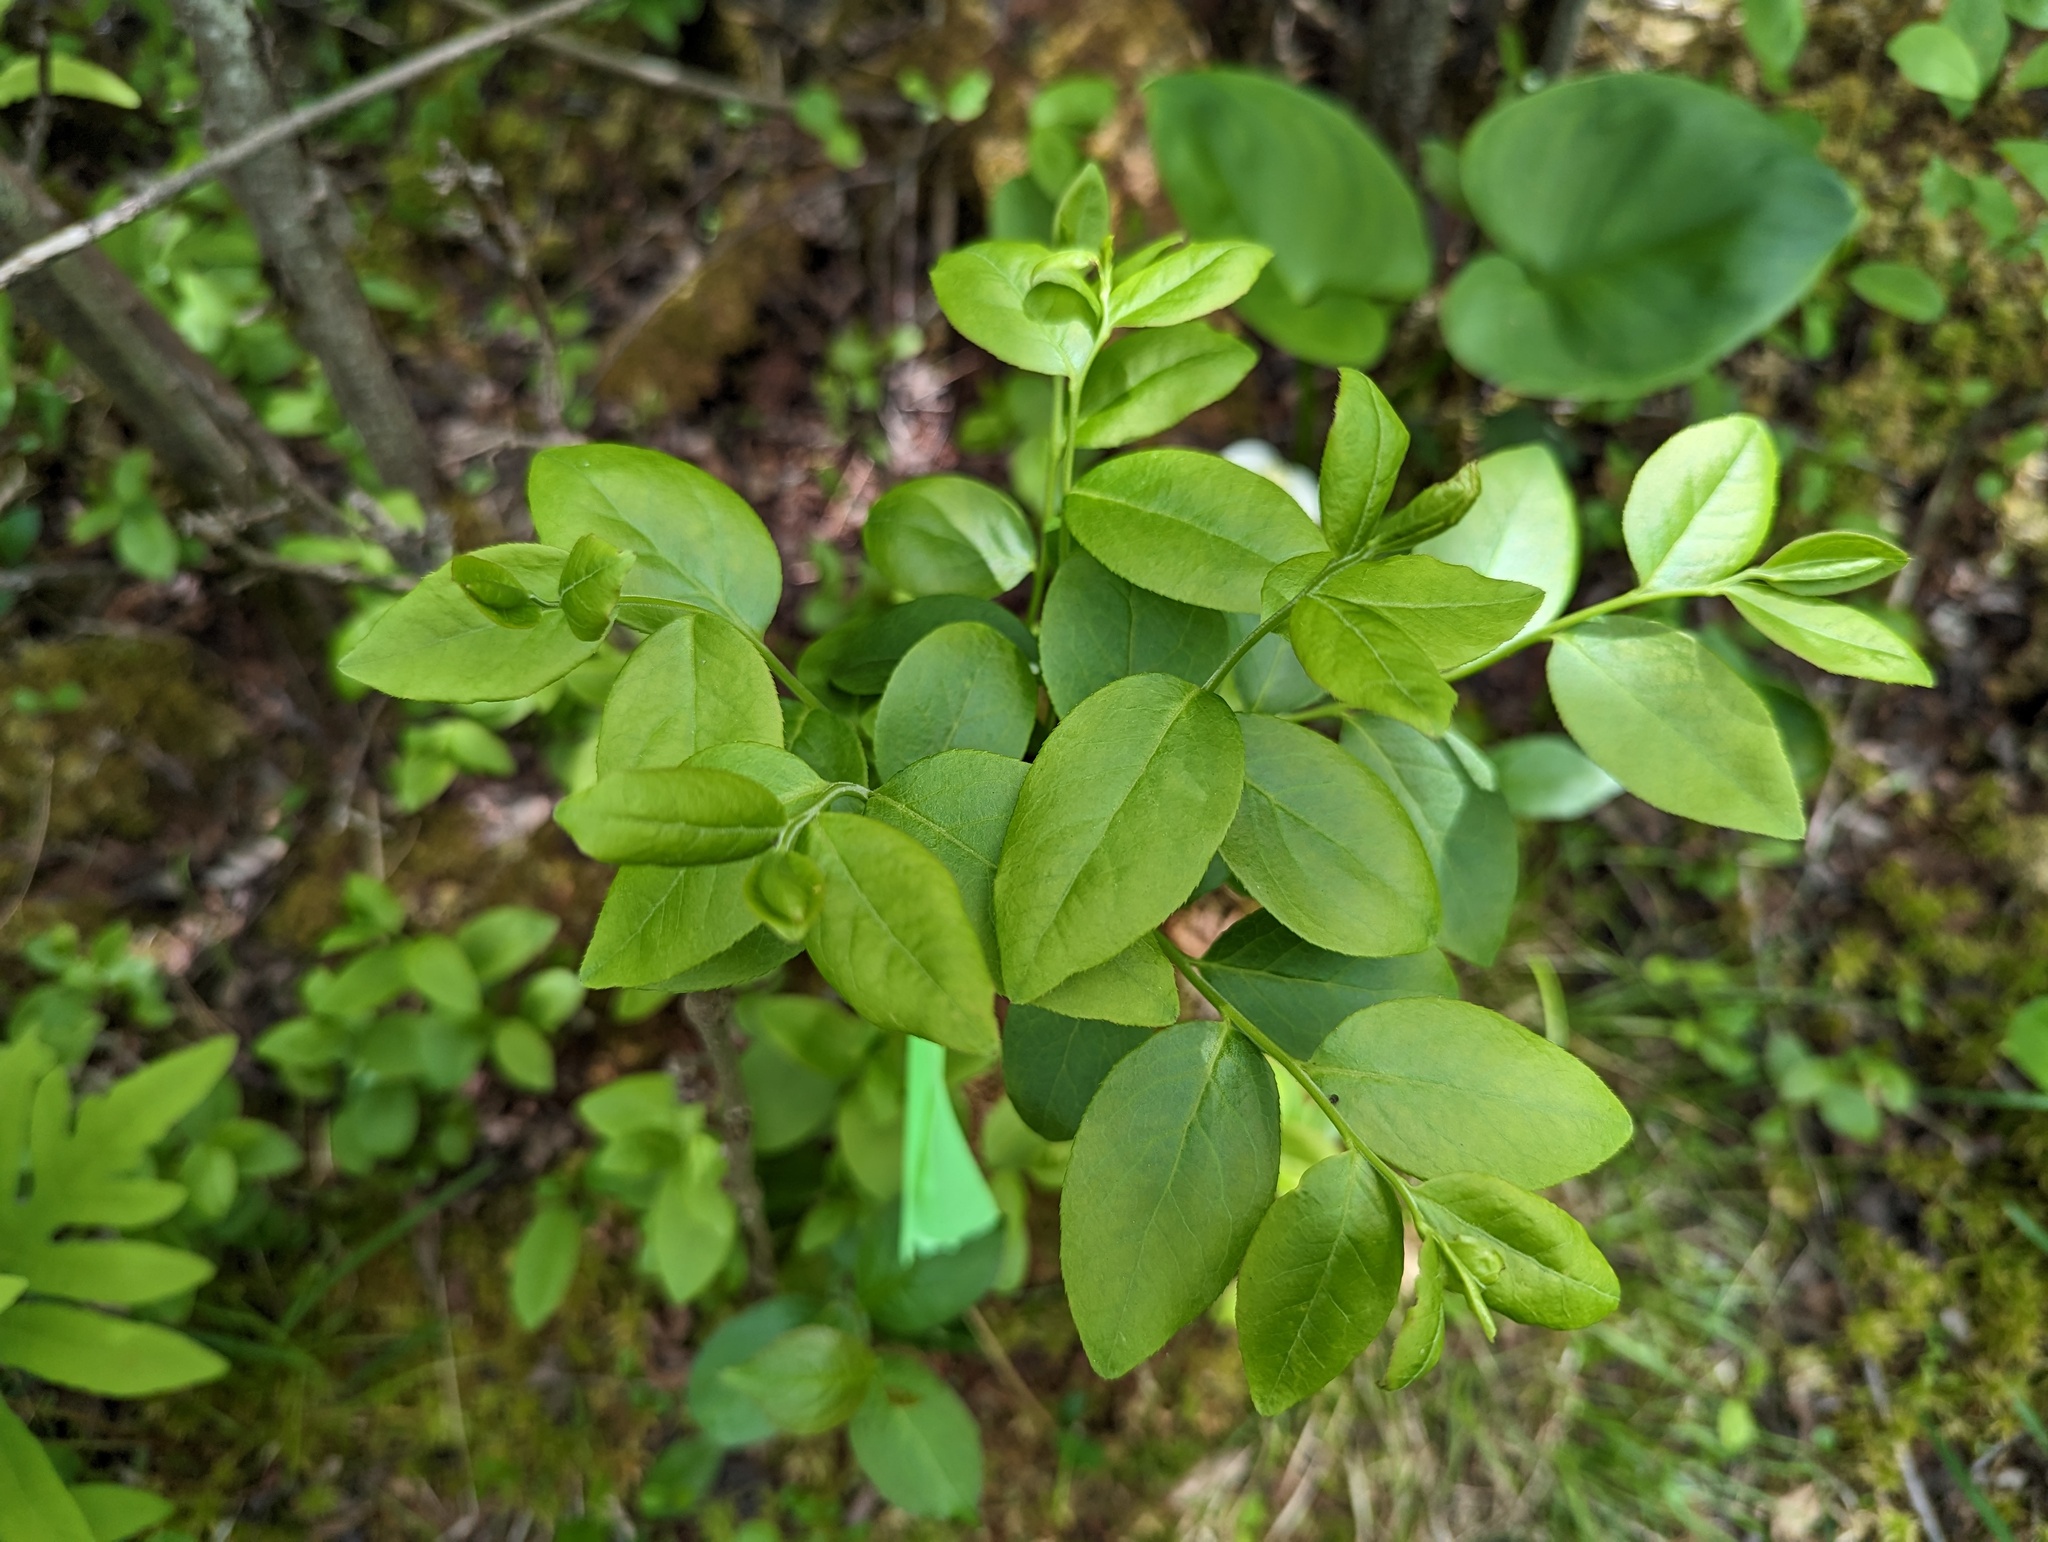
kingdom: Plantae
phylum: Tracheophyta
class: Magnoliopsida
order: Ericales
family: Ericaceae
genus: Vaccinium
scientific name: Vaccinium angustifolium
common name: Early lowbush blueberry
